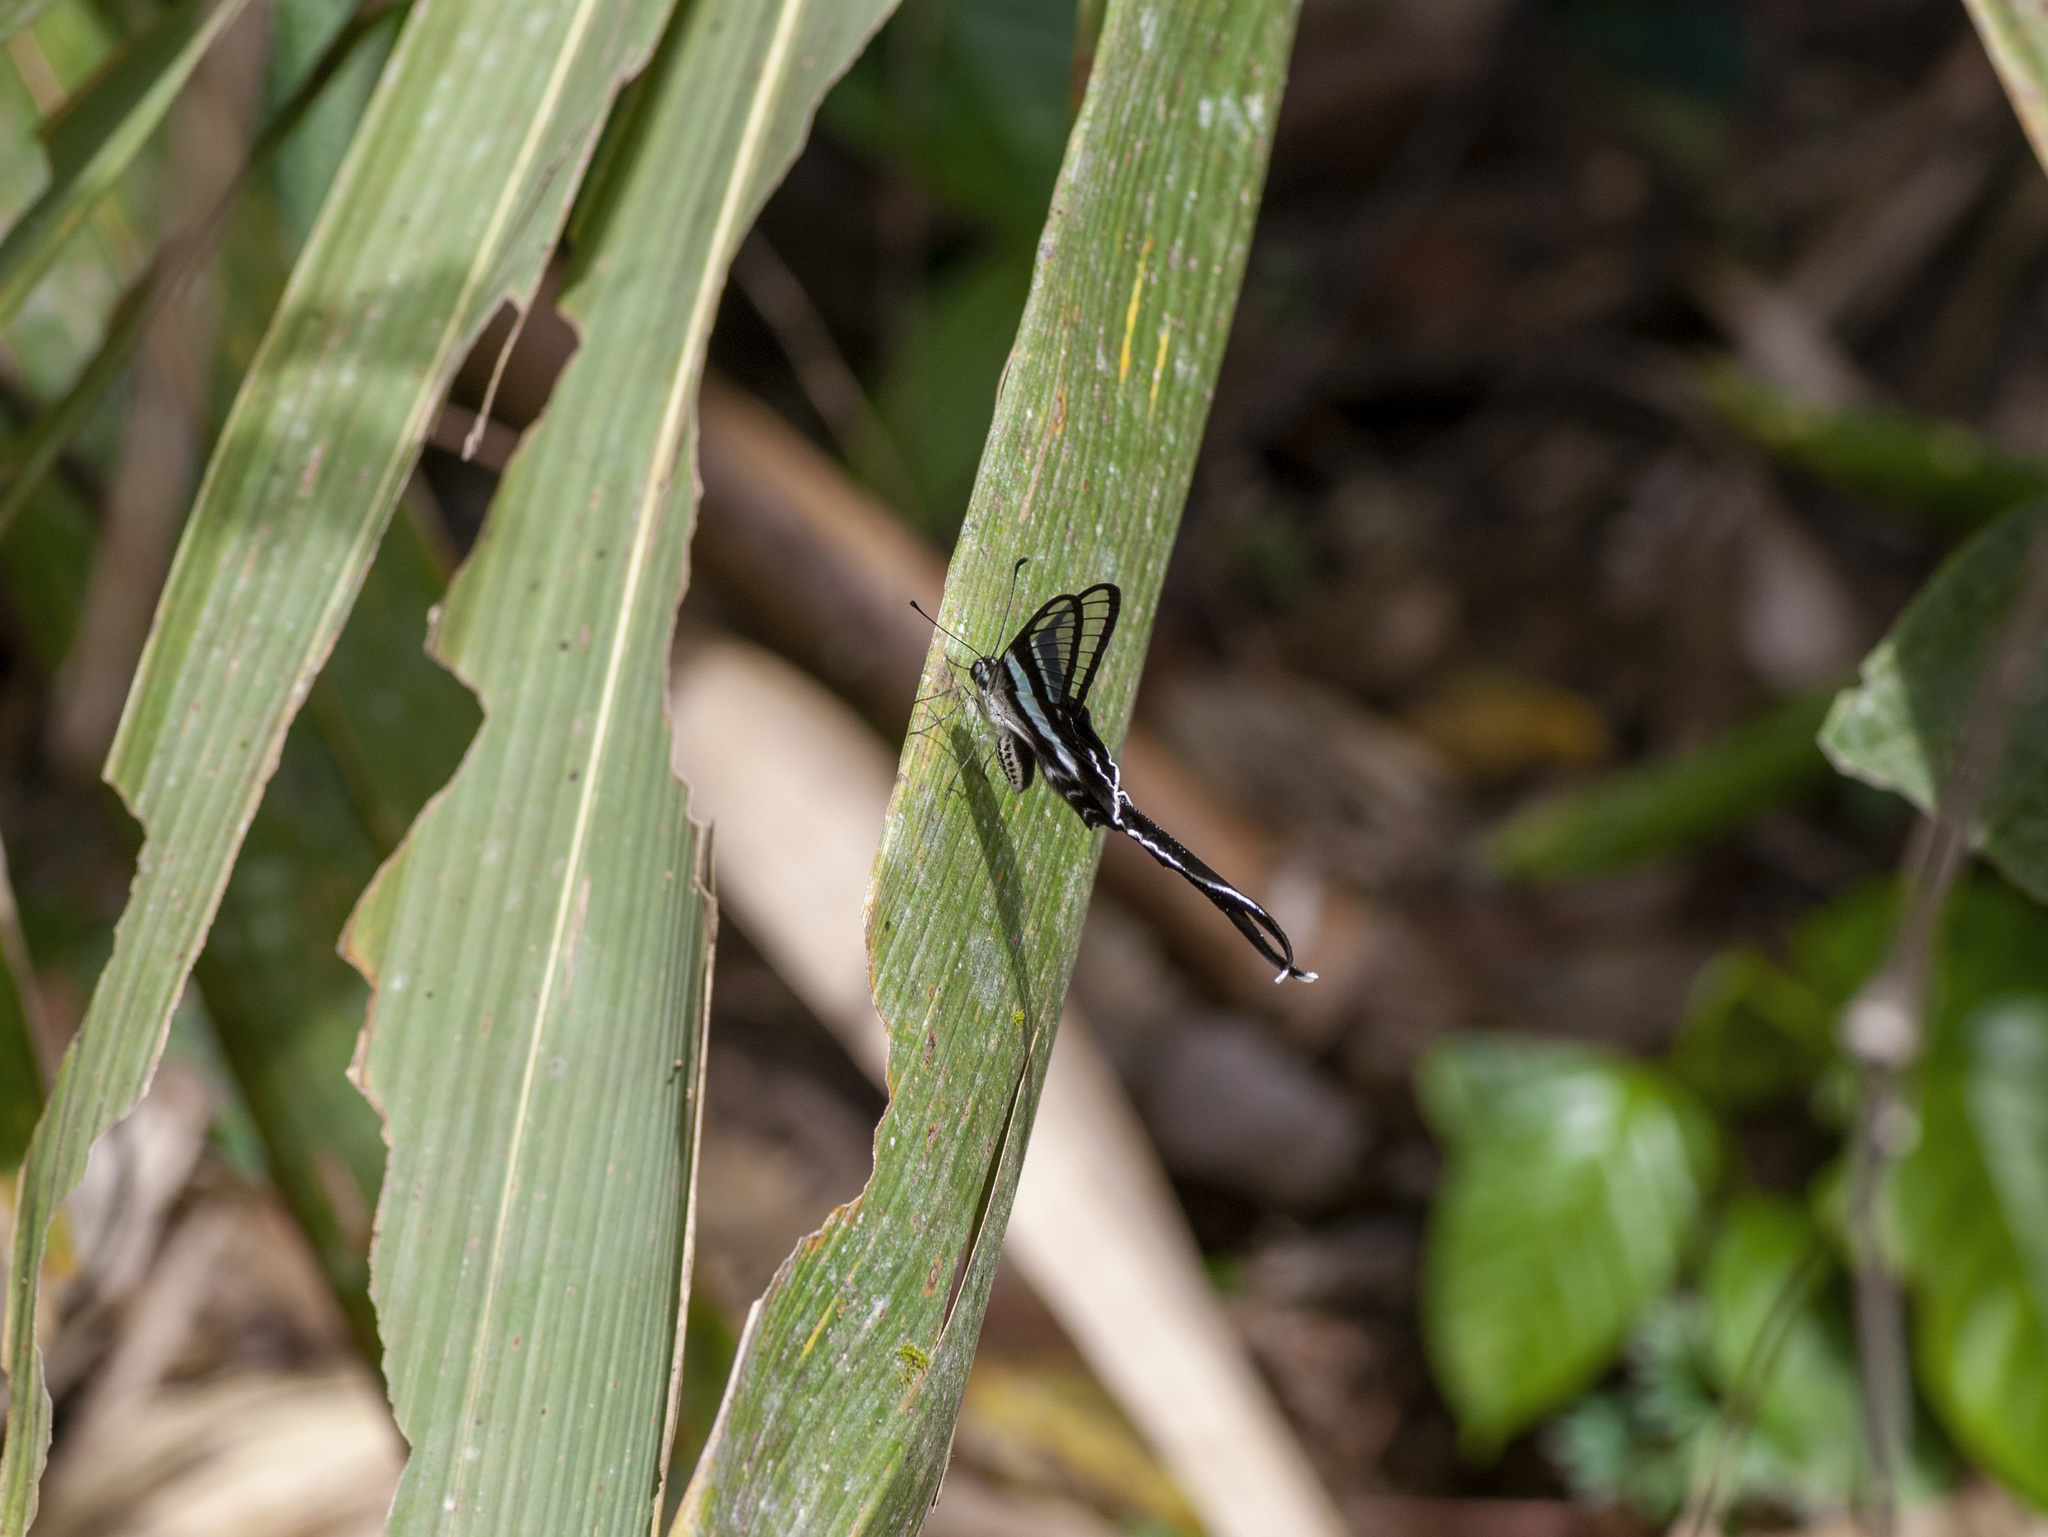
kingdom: Animalia
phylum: Arthropoda
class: Insecta
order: Lepidoptera
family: Papilionidae
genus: Lamproptera
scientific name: Lamproptera meges
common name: Green dragontail
